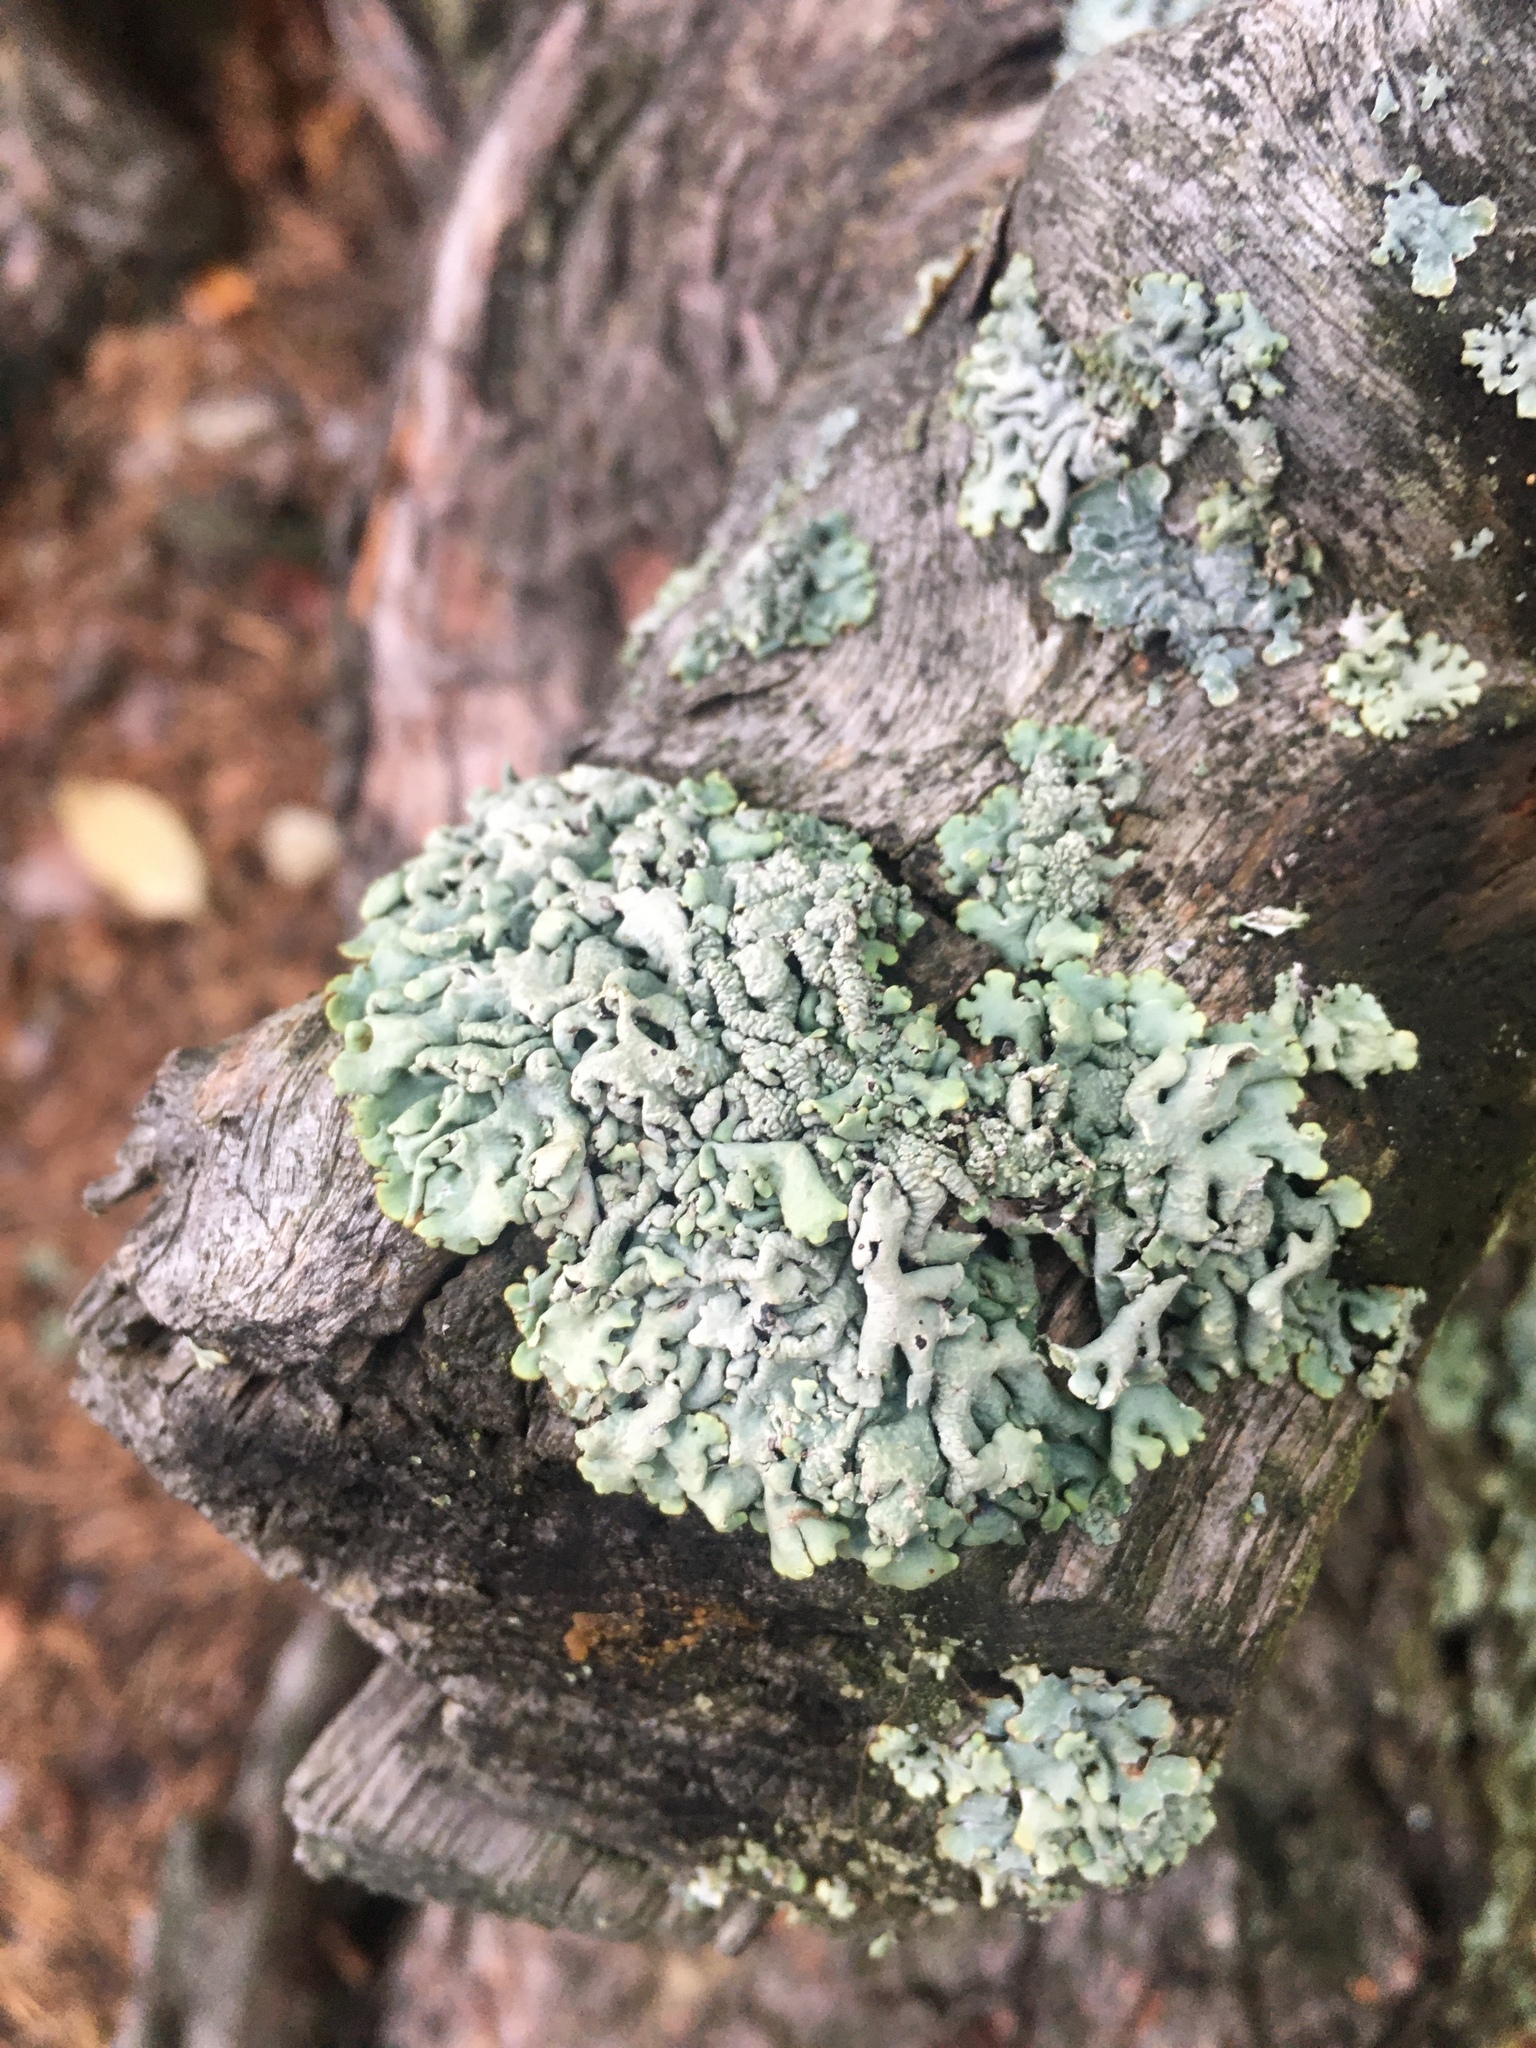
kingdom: Fungi
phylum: Ascomycota
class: Lecanoromycetes
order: Lecanorales
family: Parmeliaceae
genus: Hypogymnia
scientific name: Hypogymnia physodes
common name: Dark crottle
